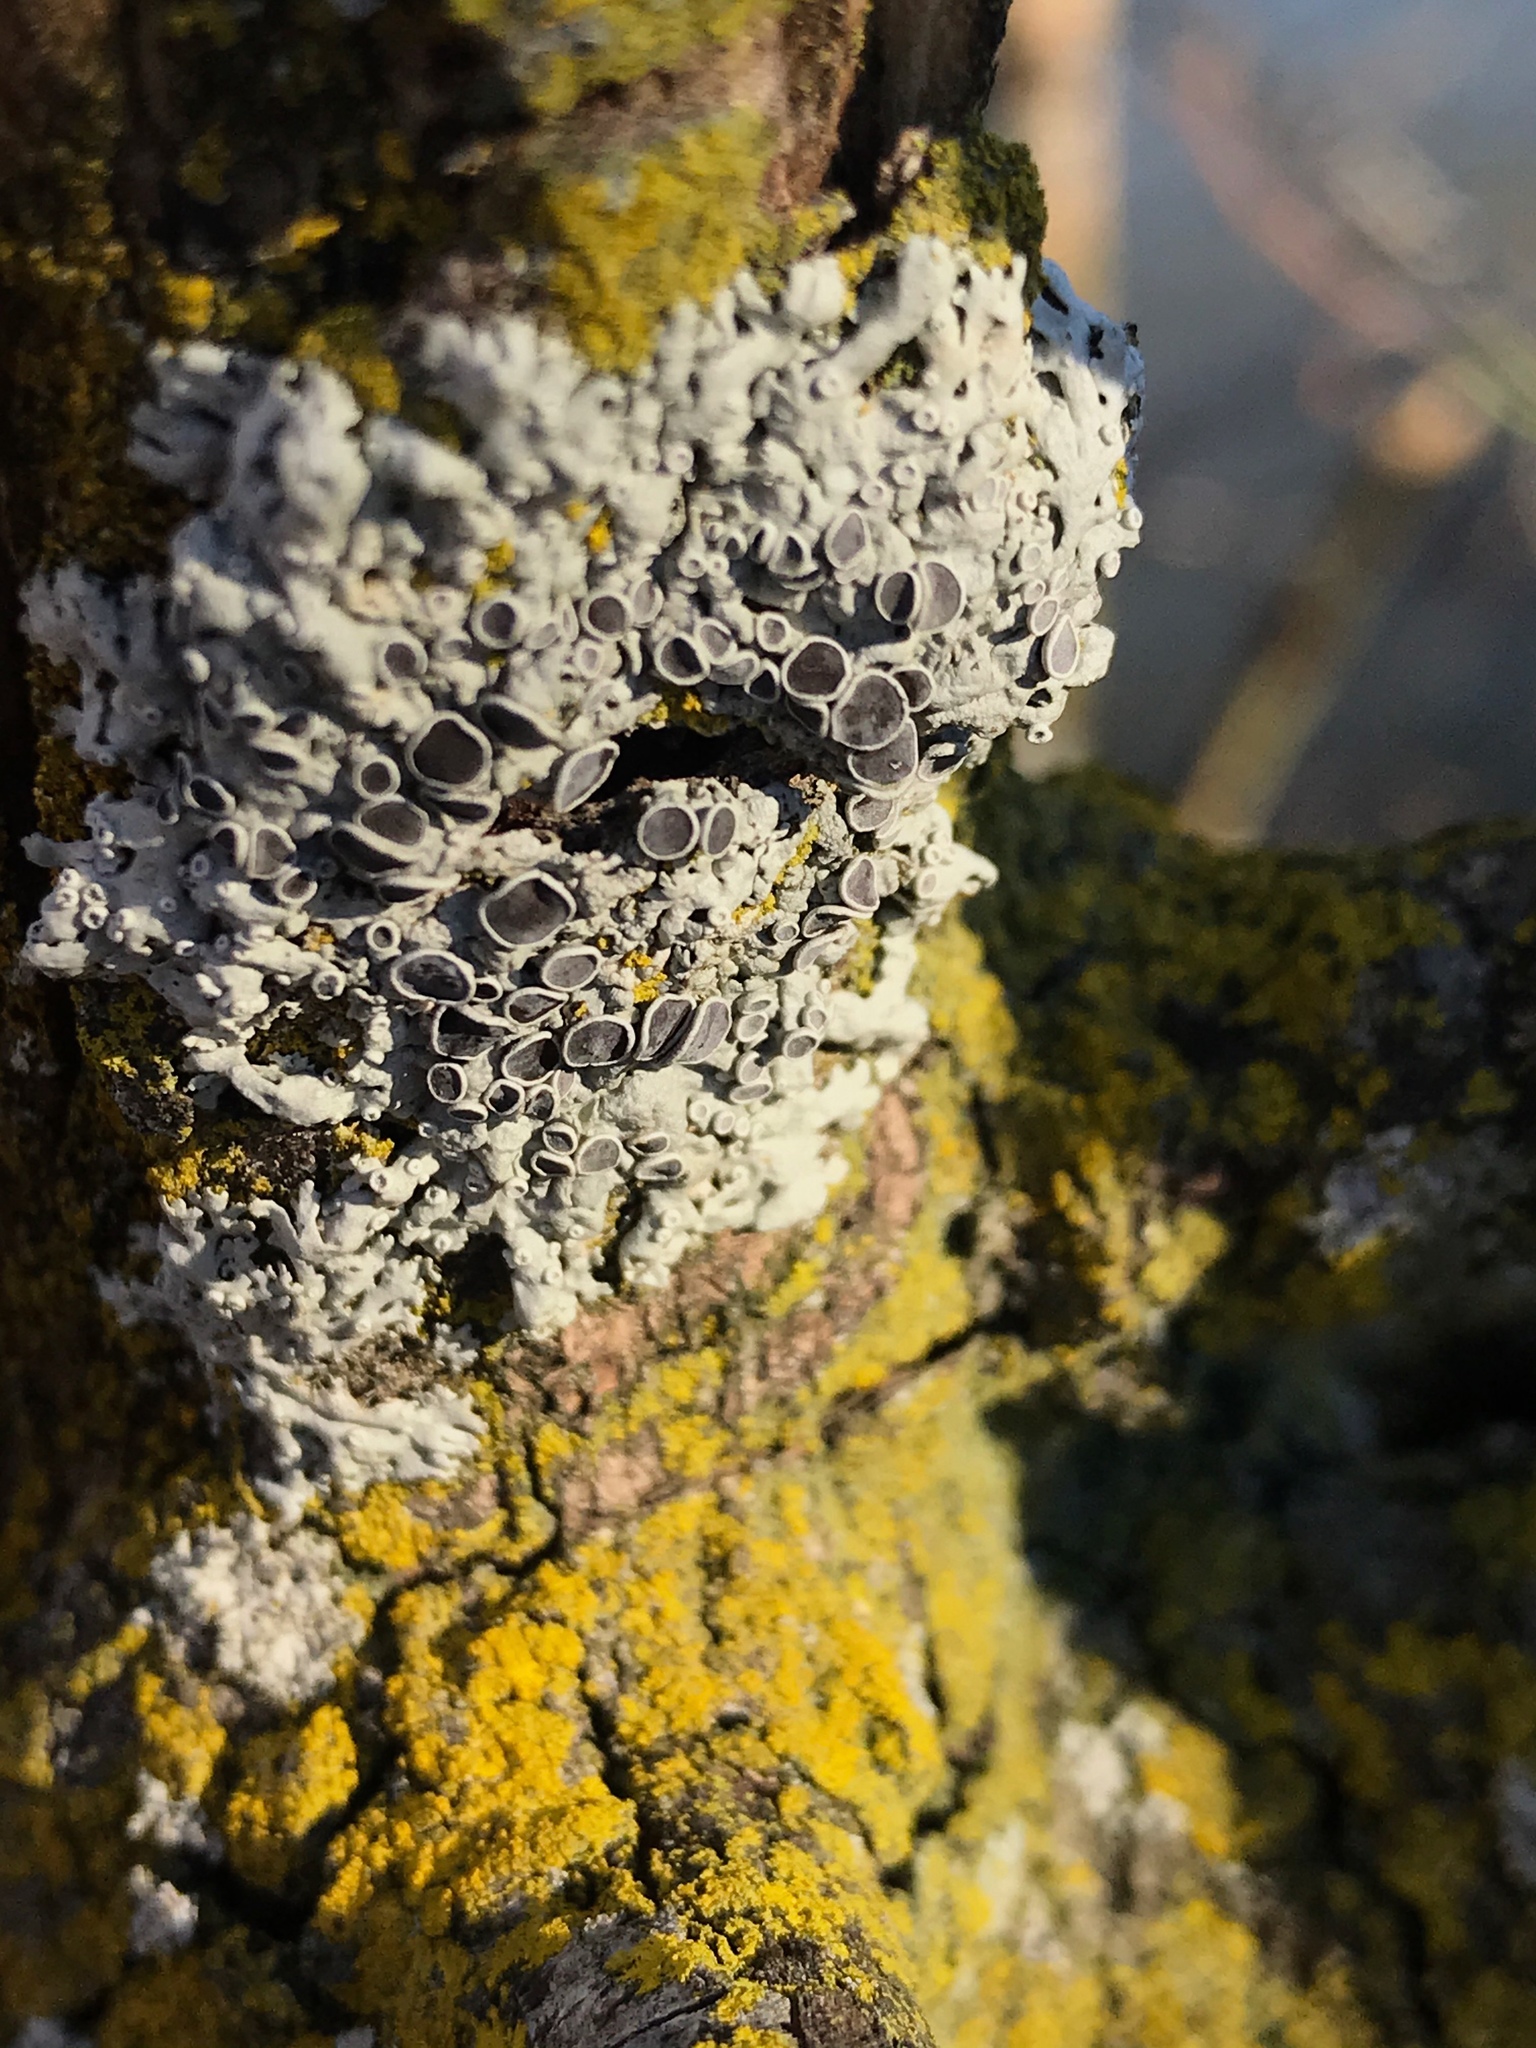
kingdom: Fungi
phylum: Ascomycota
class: Lecanoromycetes
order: Caliciales
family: Physciaceae
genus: Physcia
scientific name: Physcia stellaris
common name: Star rosette lichen
